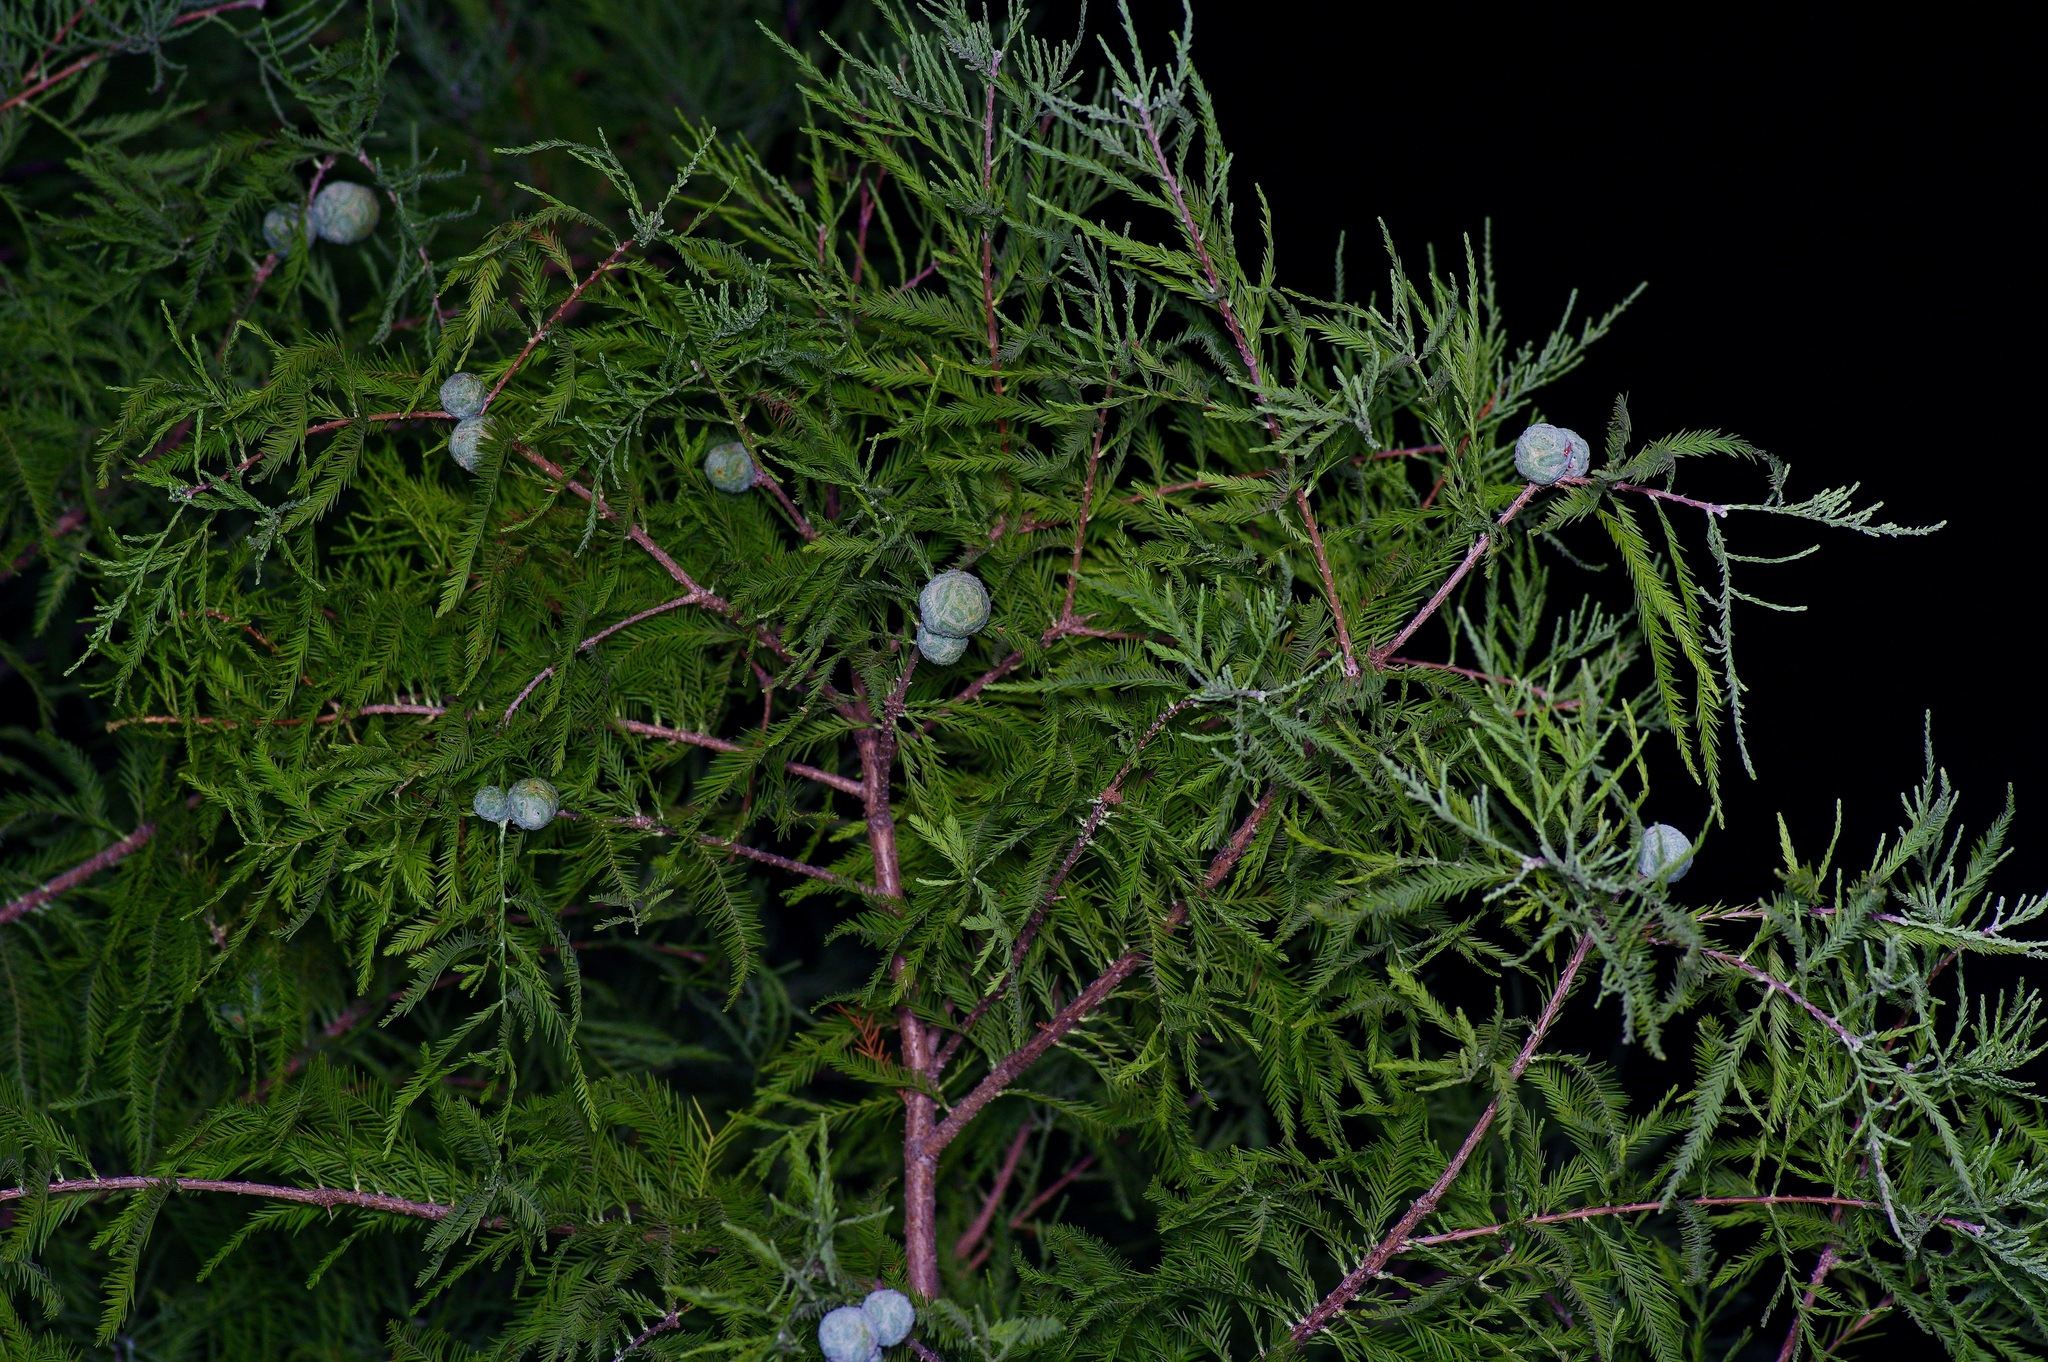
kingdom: Plantae
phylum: Tracheophyta
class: Pinopsida
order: Pinales
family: Cupressaceae
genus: Taxodium
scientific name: Taxodium distichum
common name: Bald cypress
